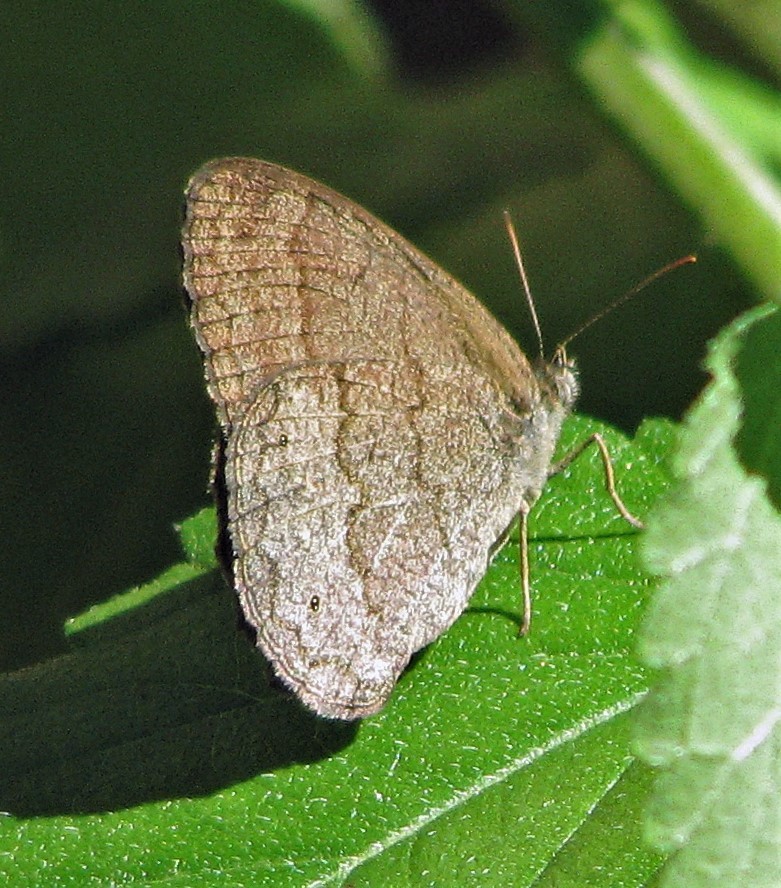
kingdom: Animalia
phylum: Arthropoda
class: Insecta
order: Lepidoptera
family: Nymphalidae
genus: Malaveria
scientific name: Malaveria
